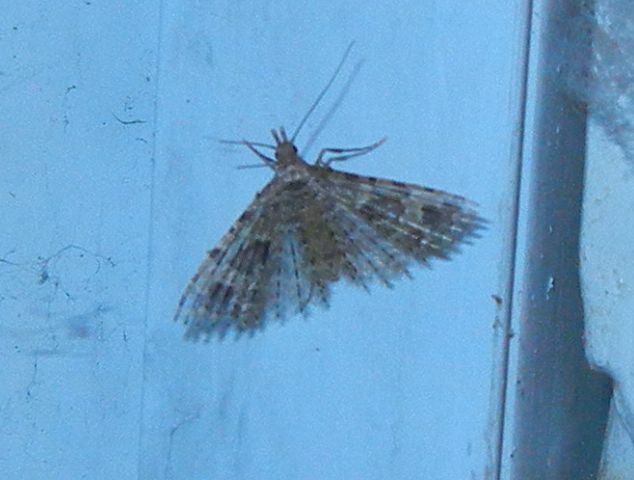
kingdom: Animalia
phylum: Arthropoda
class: Insecta
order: Lepidoptera
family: Alucitidae
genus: Alucita
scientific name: Alucita hexadactyla
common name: Twenty-plume moth
